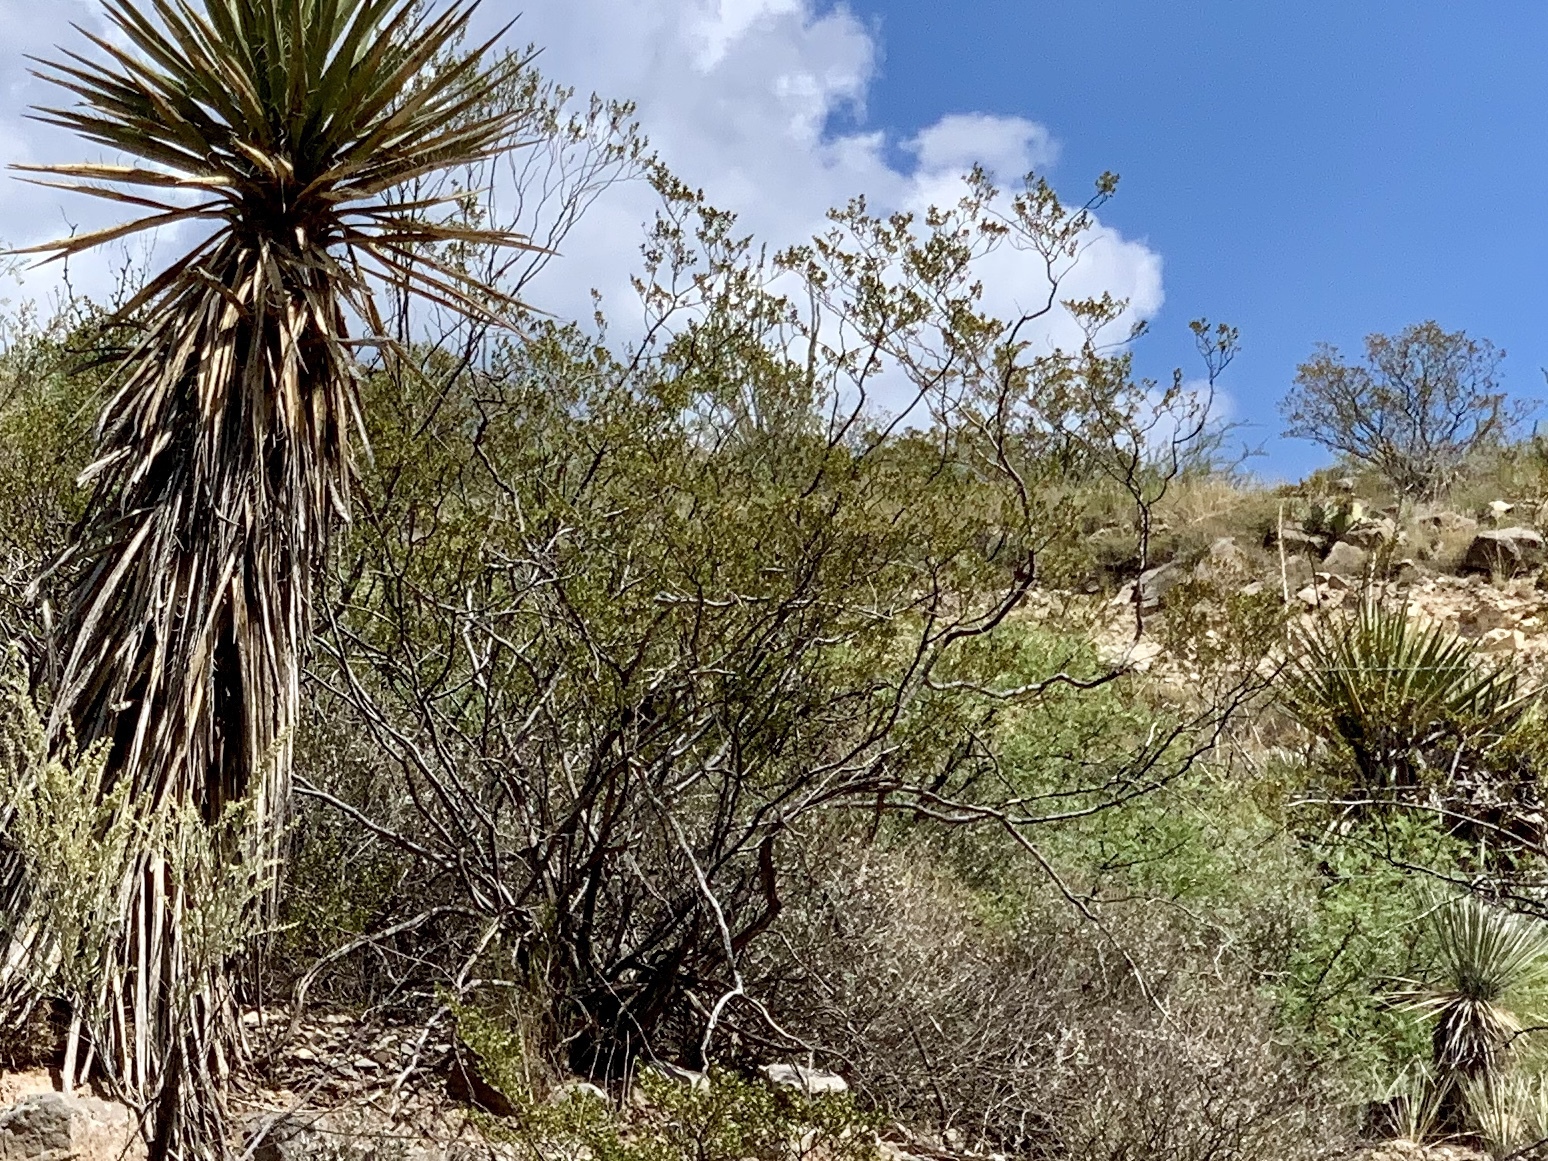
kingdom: Plantae
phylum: Tracheophyta
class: Magnoliopsida
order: Zygophyllales
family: Zygophyllaceae
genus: Larrea
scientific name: Larrea tridentata
